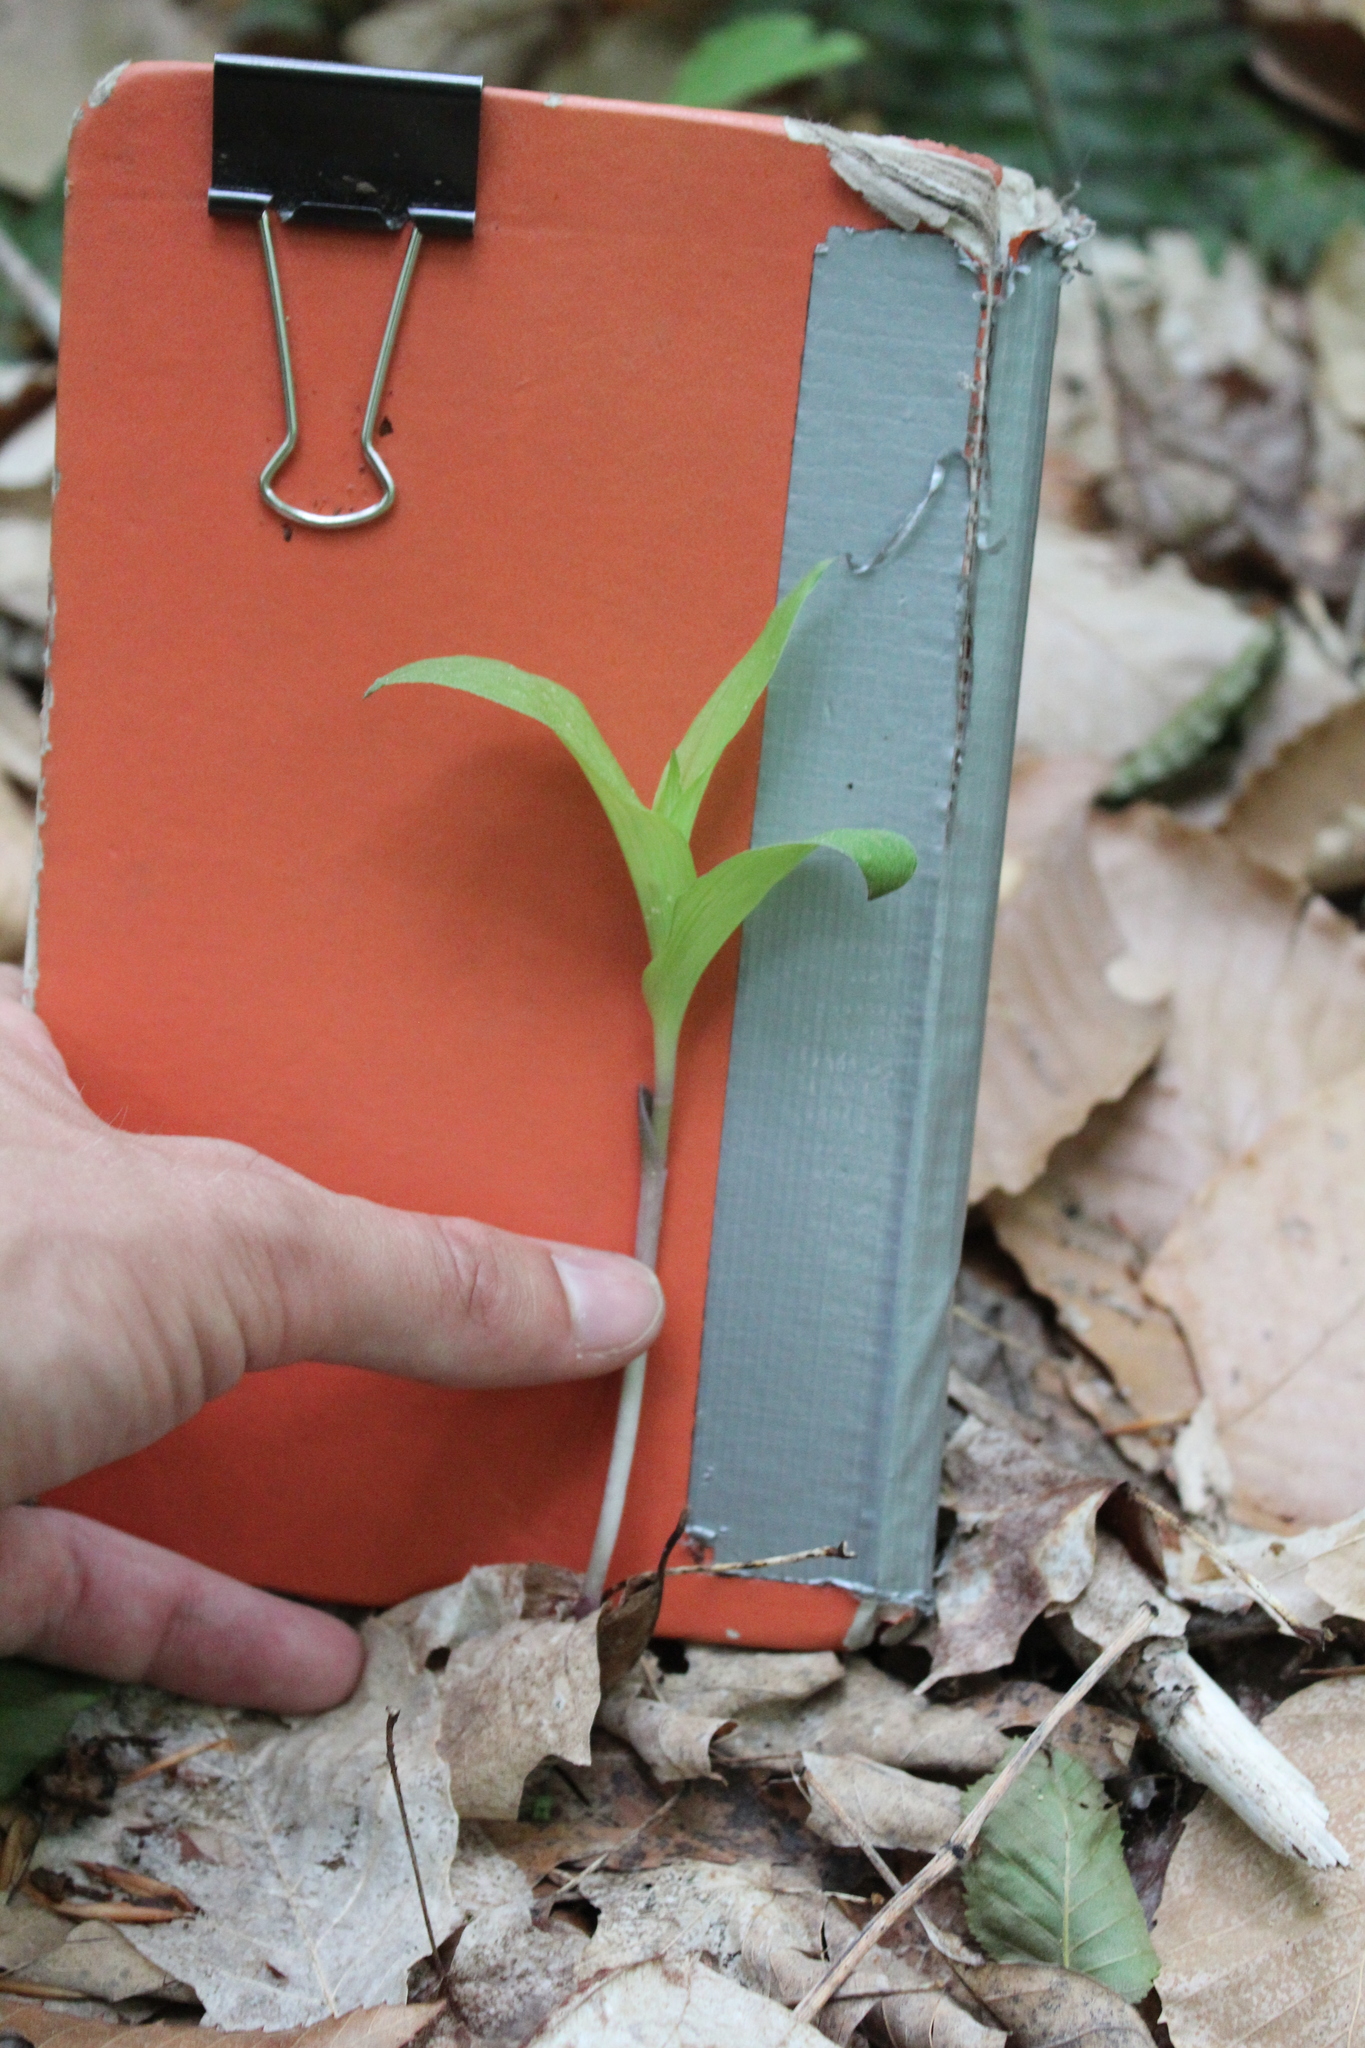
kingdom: Plantae
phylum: Tracheophyta
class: Liliopsida
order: Asparagales
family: Orchidaceae
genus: Epipactis
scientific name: Epipactis helleborine
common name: Broad-leaved helleborine
